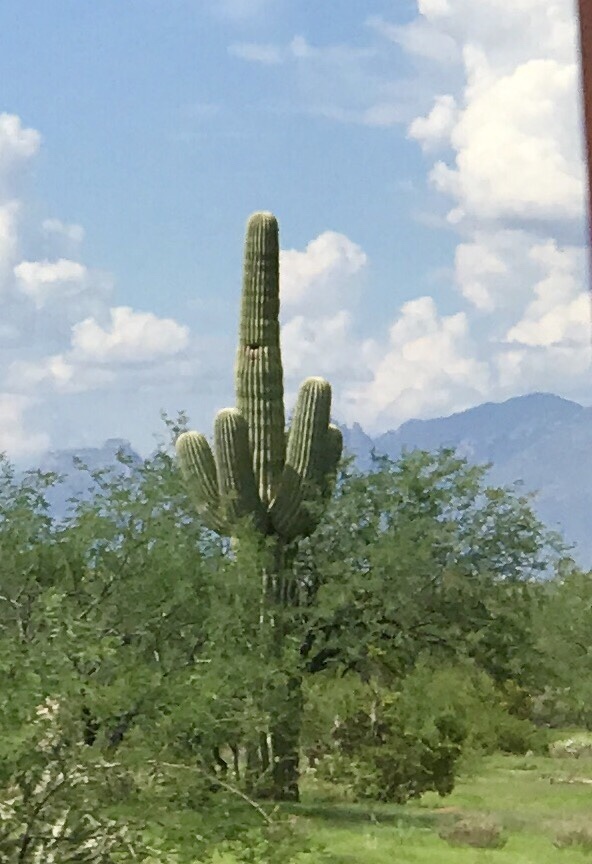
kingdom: Plantae
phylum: Tracheophyta
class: Magnoliopsida
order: Caryophyllales
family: Cactaceae
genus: Carnegiea
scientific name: Carnegiea gigantea
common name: Saguaro
